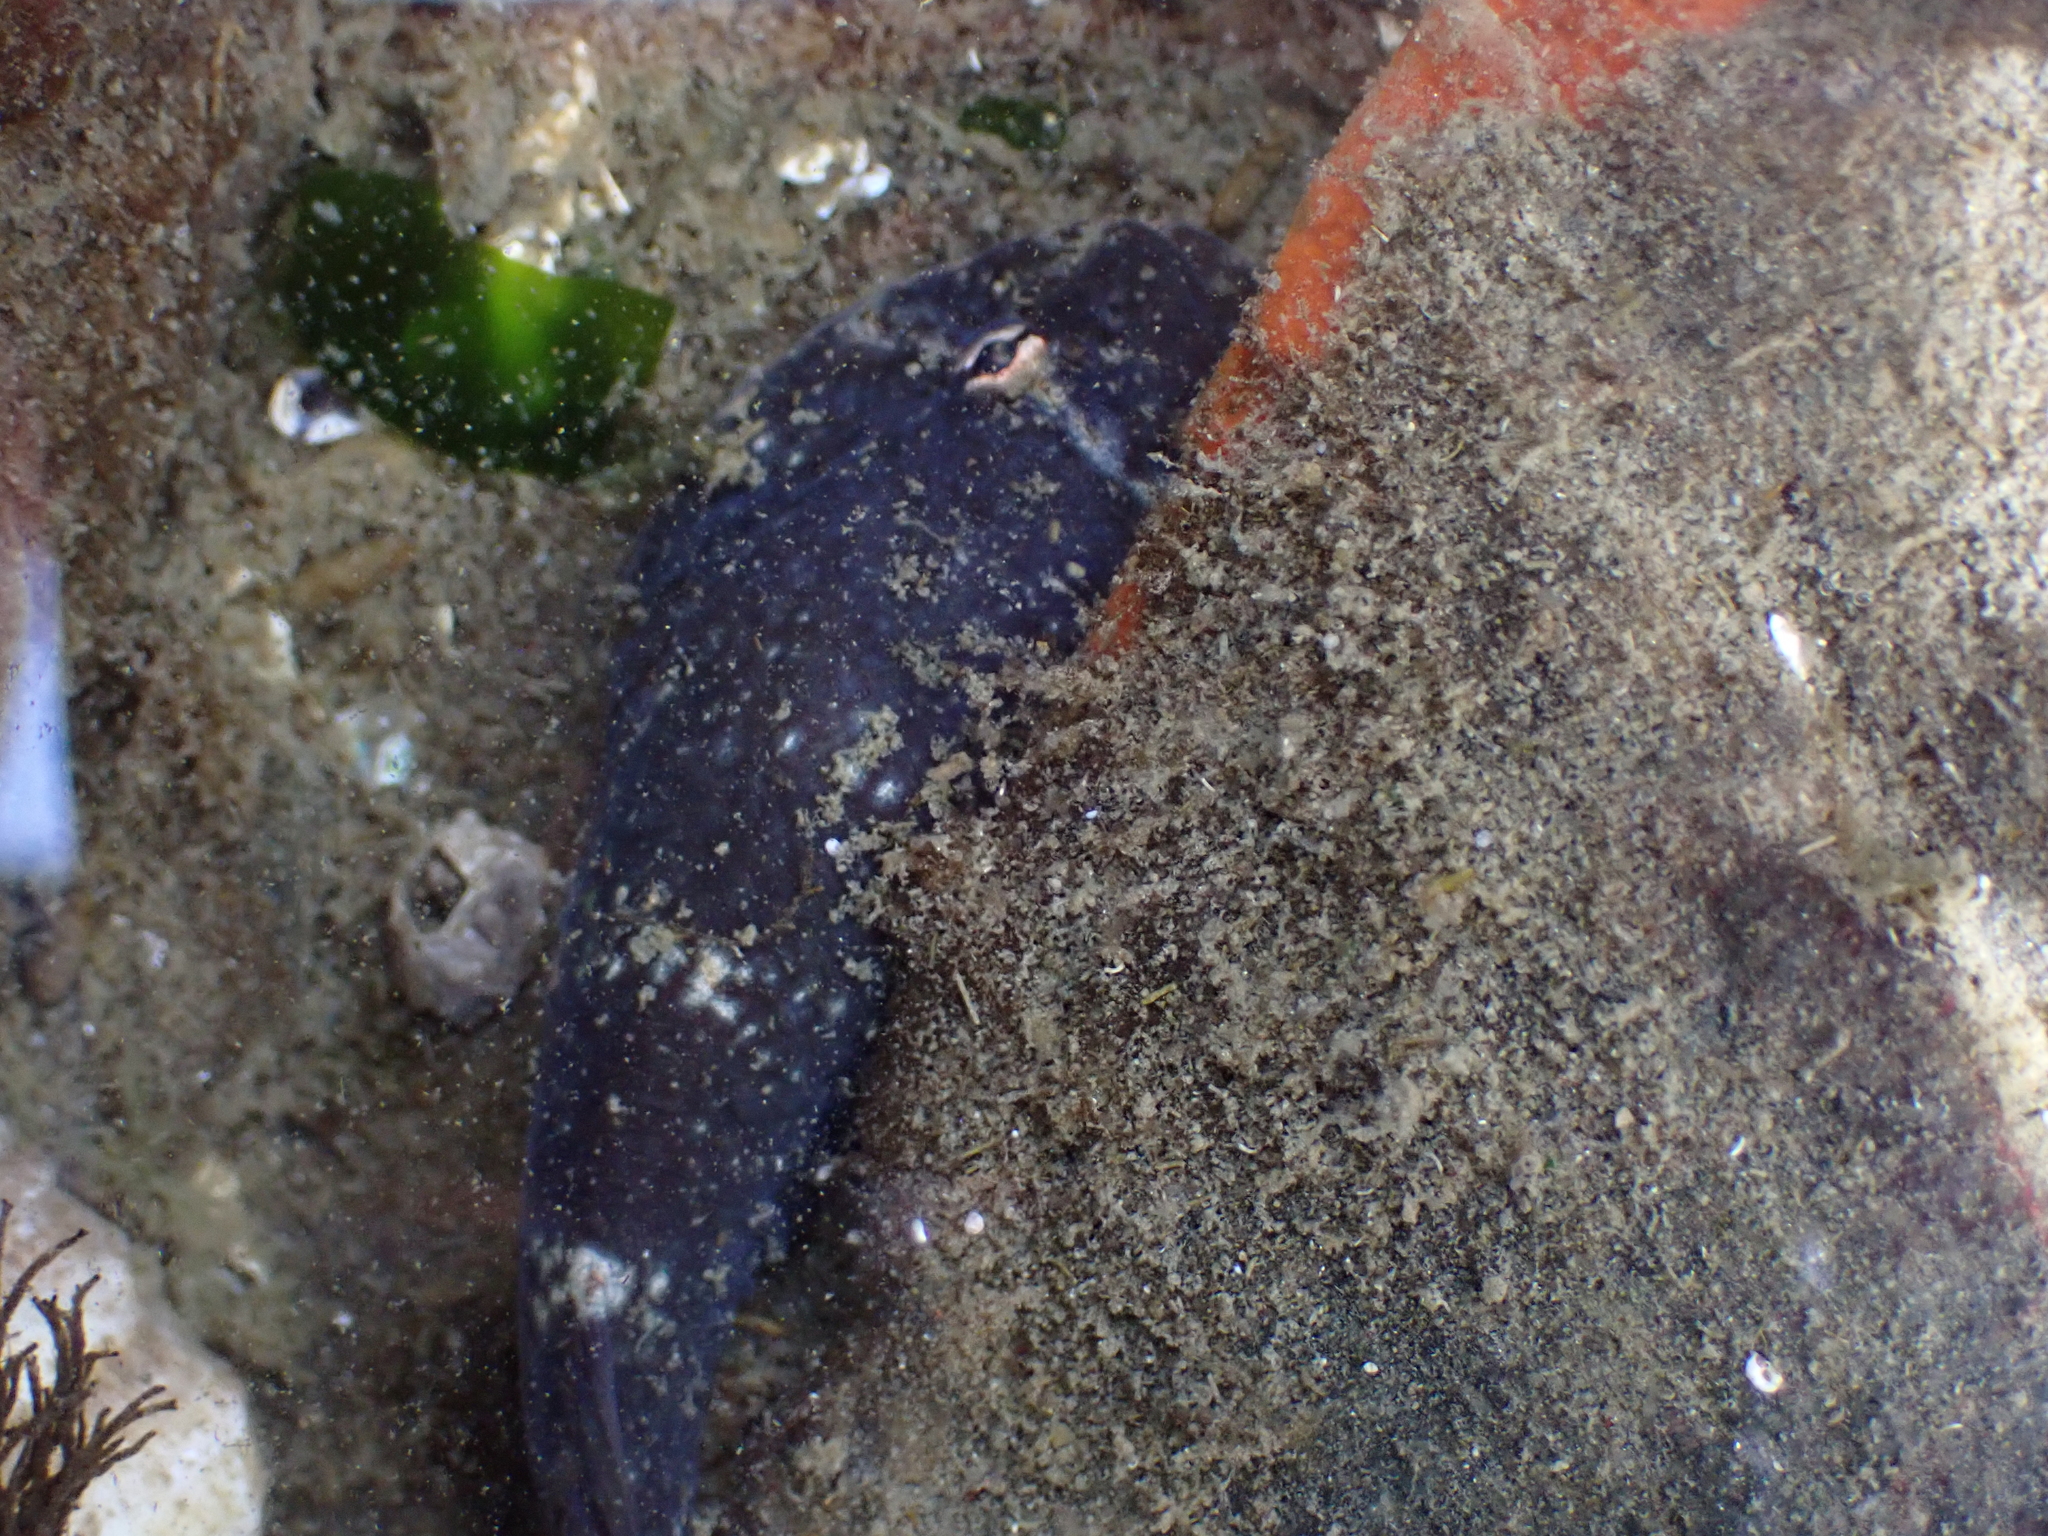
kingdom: Animalia
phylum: Chordata
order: Gobiesociformes
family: Gobiesocidae
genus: Gobiesox
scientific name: Gobiesox maeandricus
